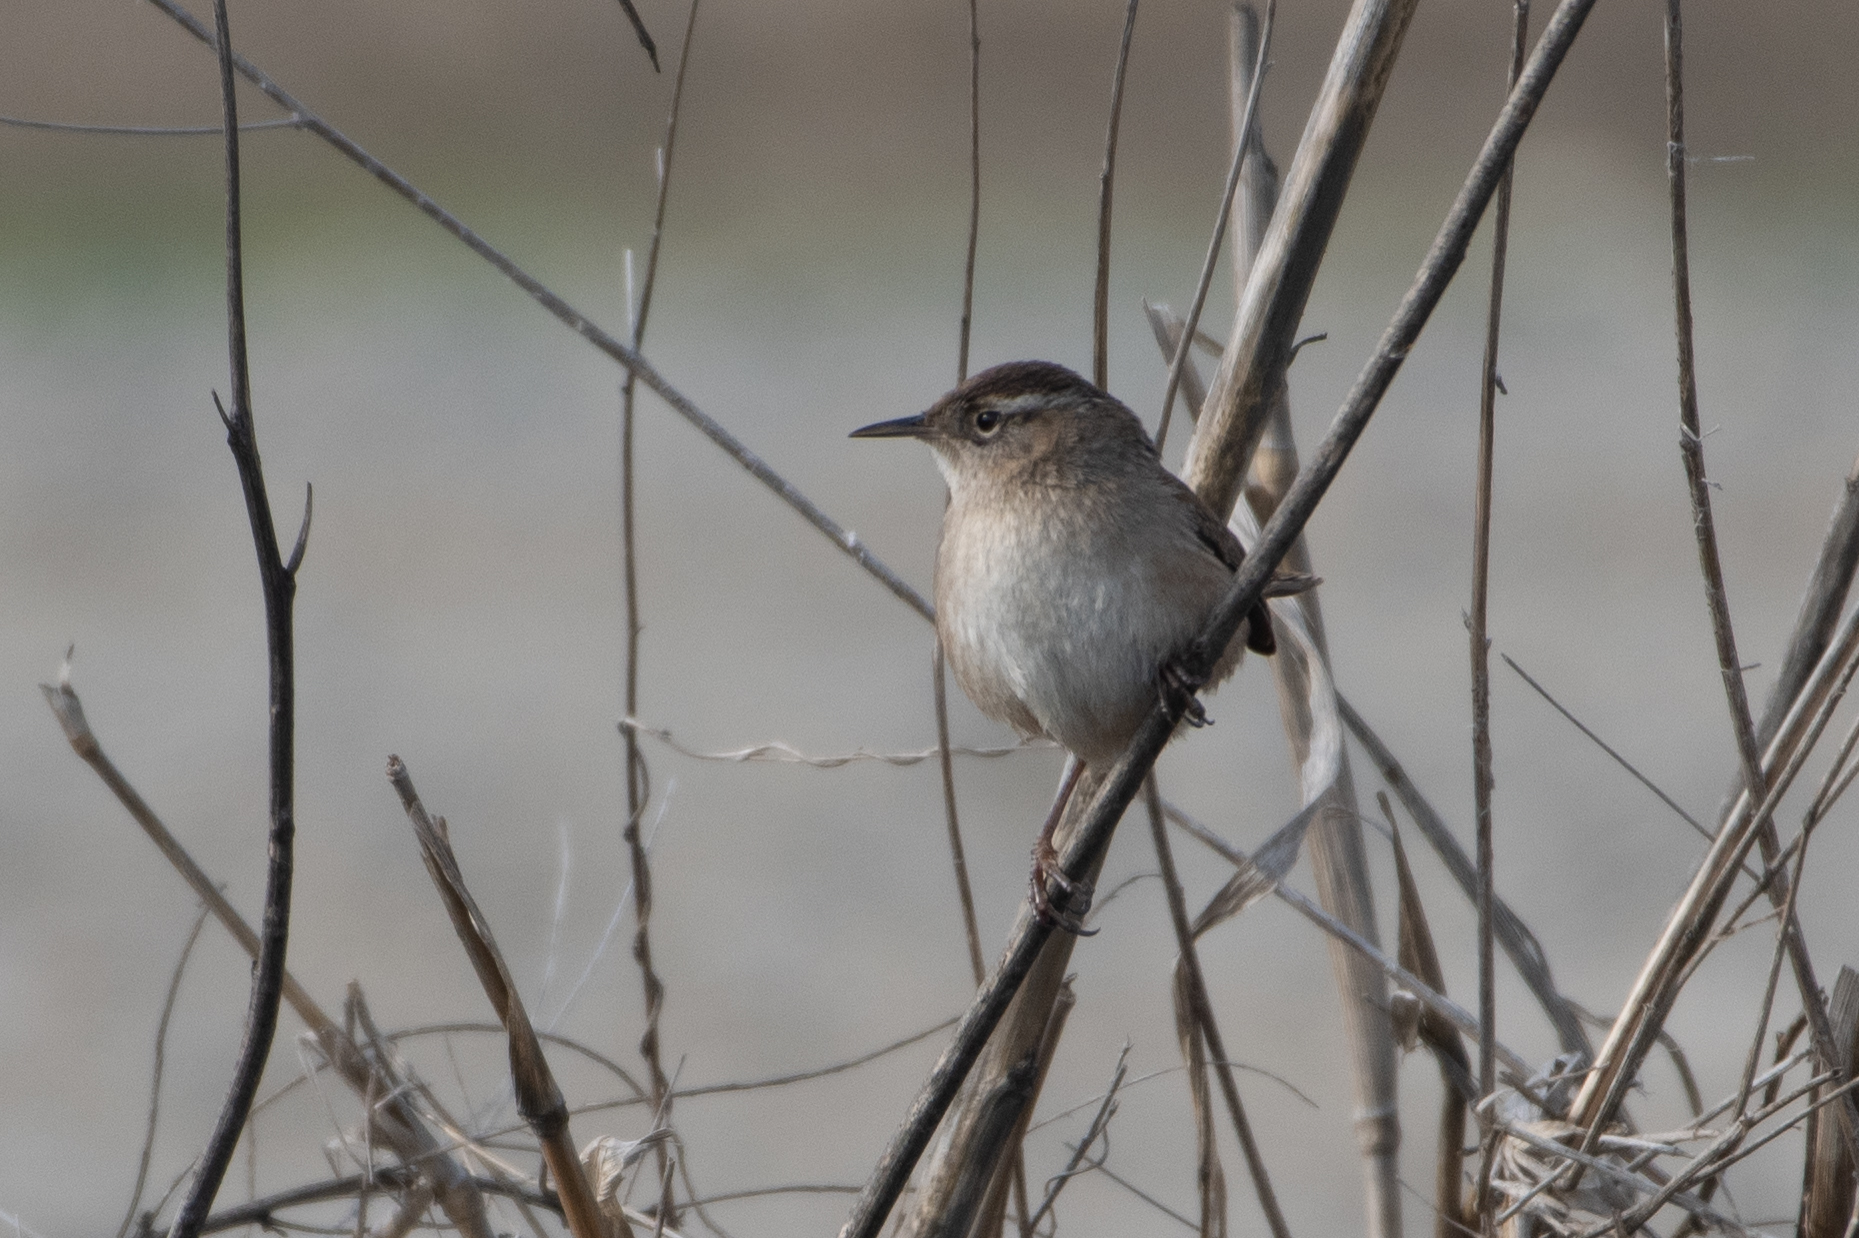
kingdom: Animalia
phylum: Chordata
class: Aves
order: Passeriformes
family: Troglodytidae
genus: Cistothorus
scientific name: Cistothorus palustris
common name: Marsh wren
